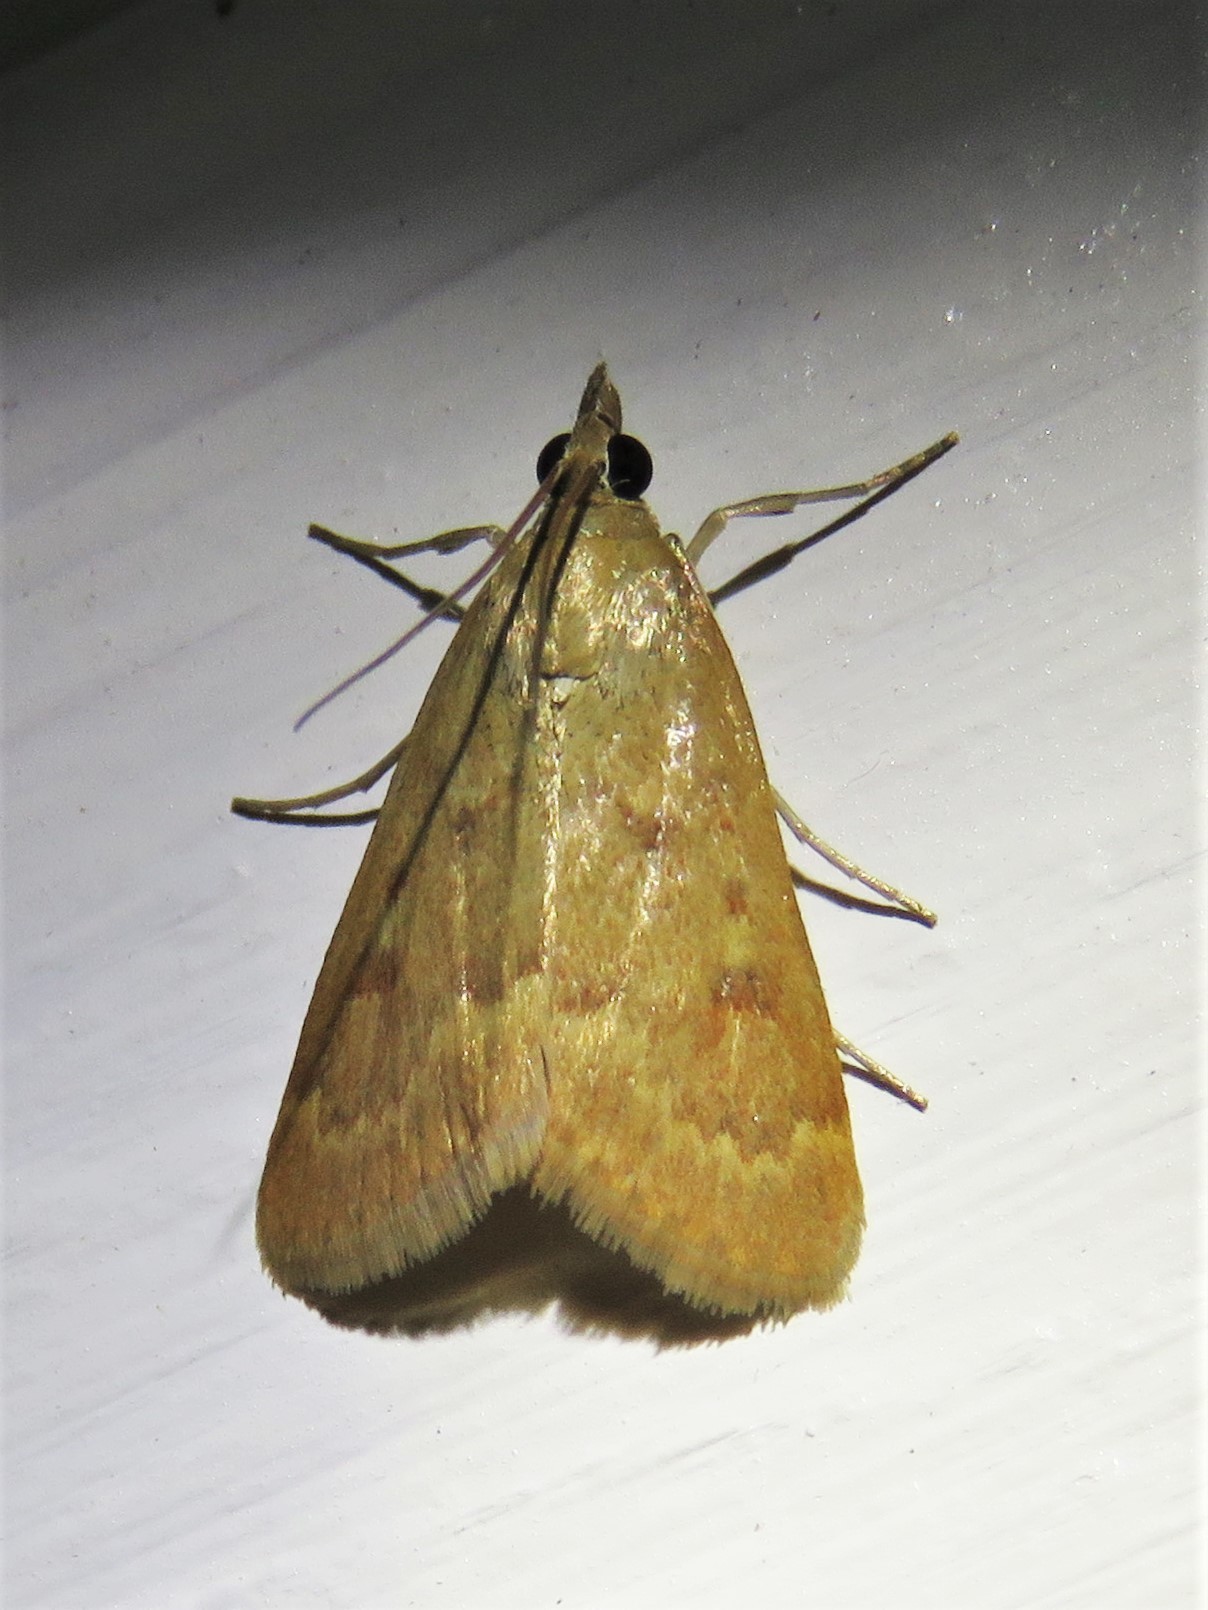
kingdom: Animalia
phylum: Arthropoda
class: Insecta
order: Lepidoptera
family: Crambidae
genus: Achyra
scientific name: Achyra rantalis
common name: Garden webworm
